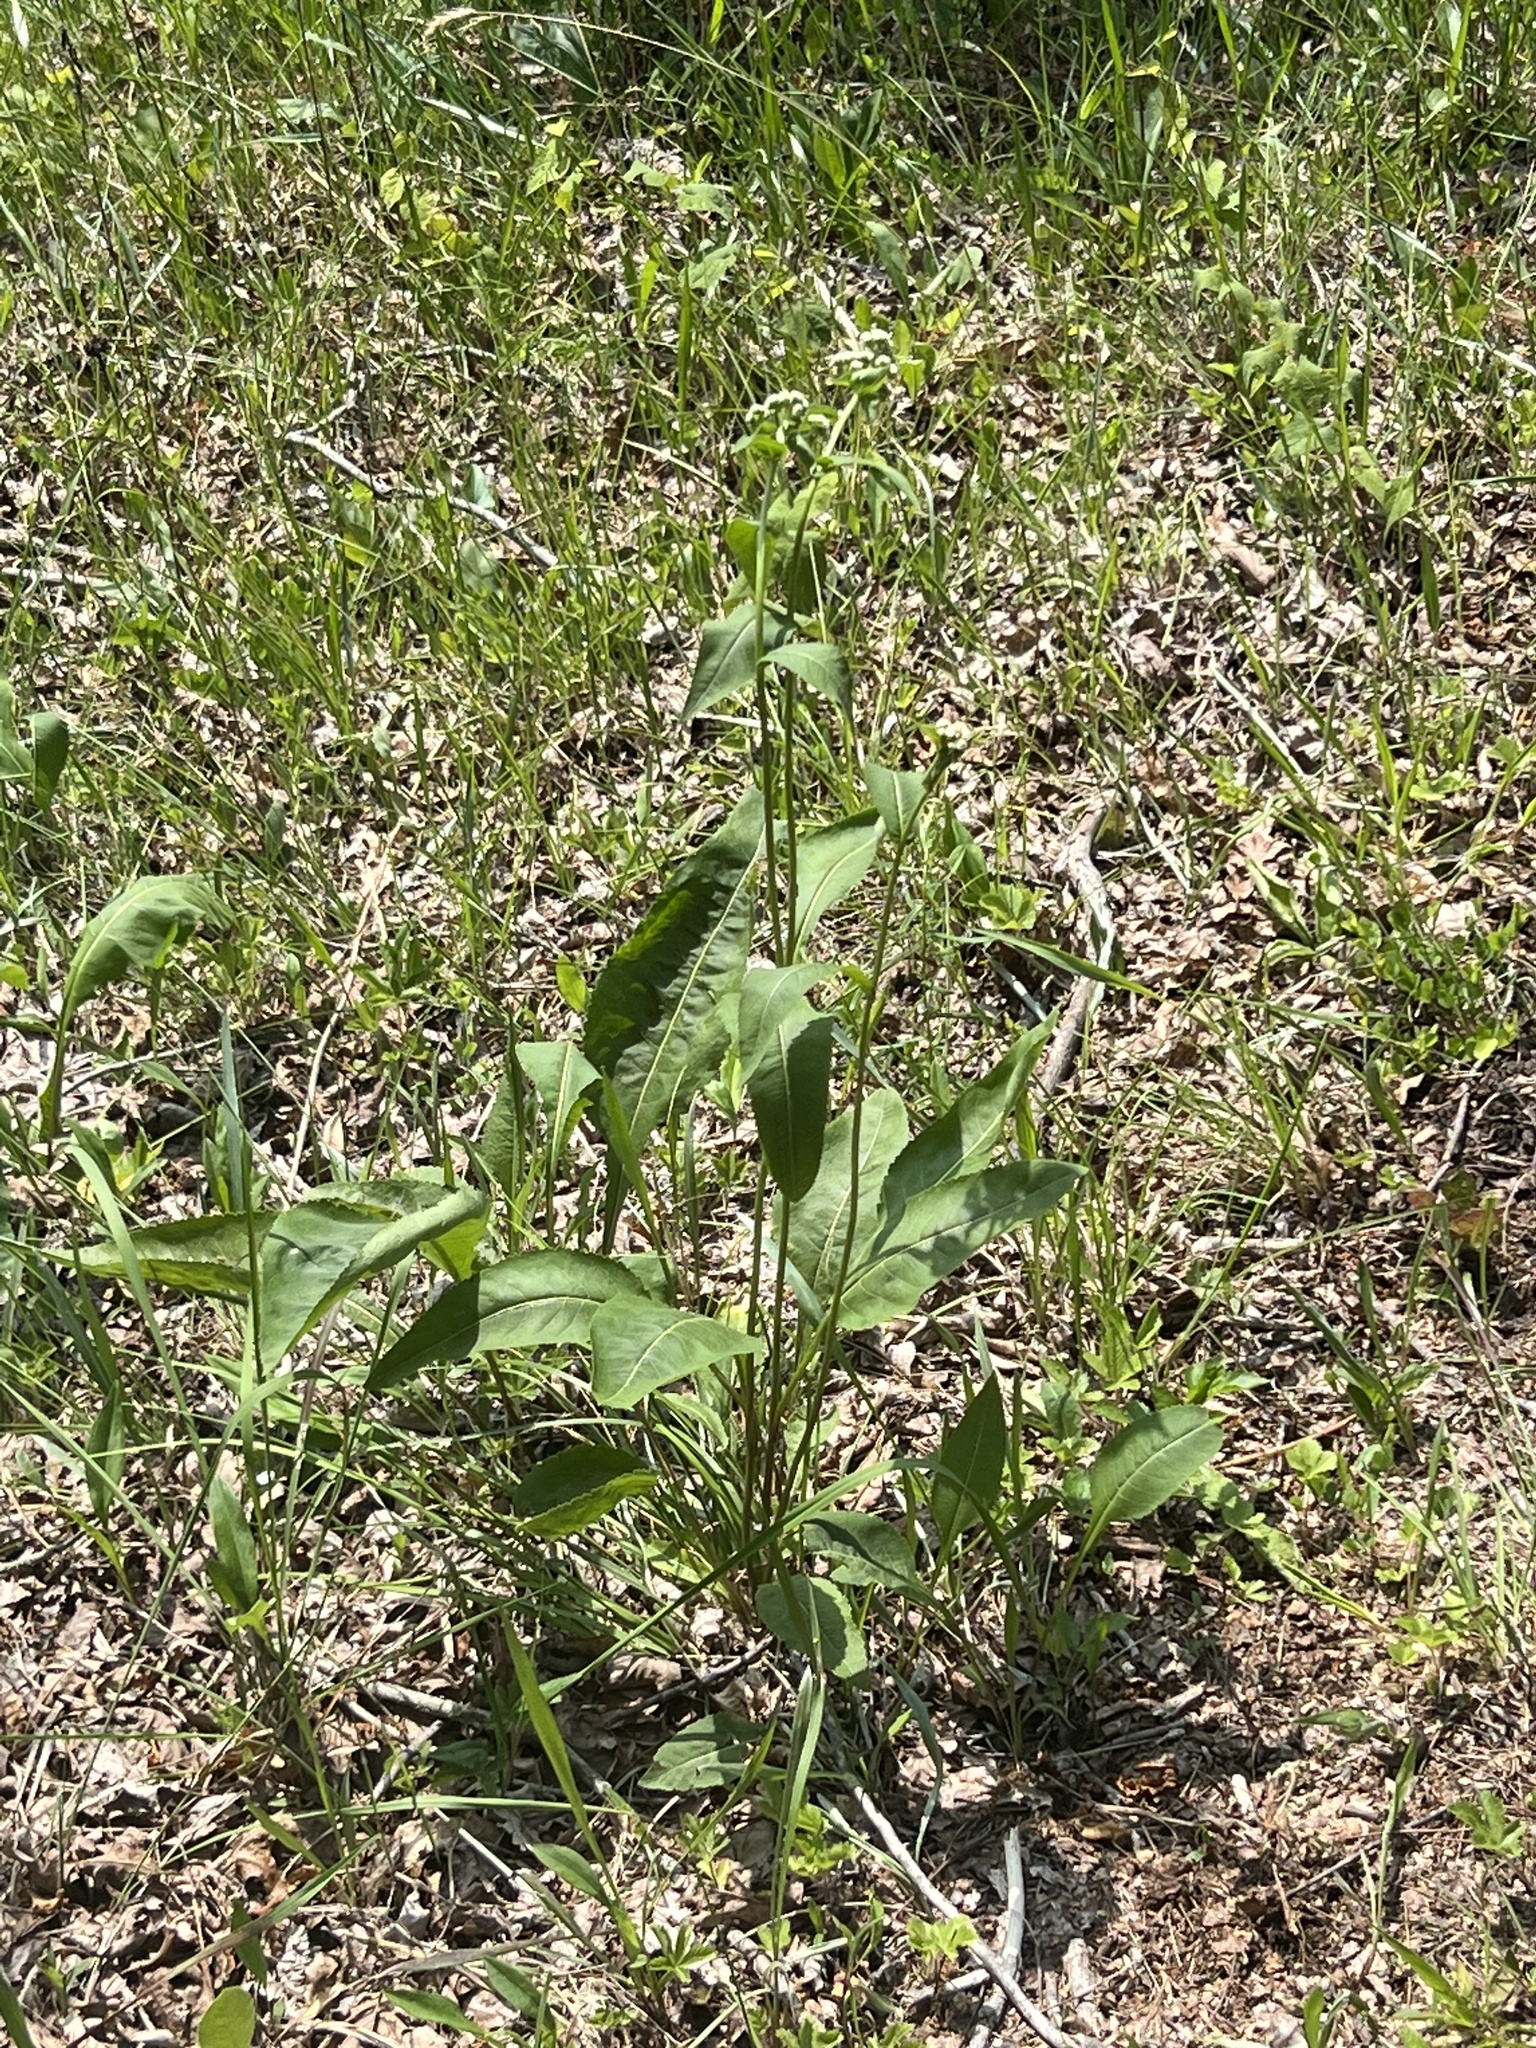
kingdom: Plantae
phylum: Tracheophyta
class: Magnoliopsida
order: Asterales
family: Asteraceae
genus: Parthenium
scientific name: Parthenium integrifolium
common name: American feverfew
